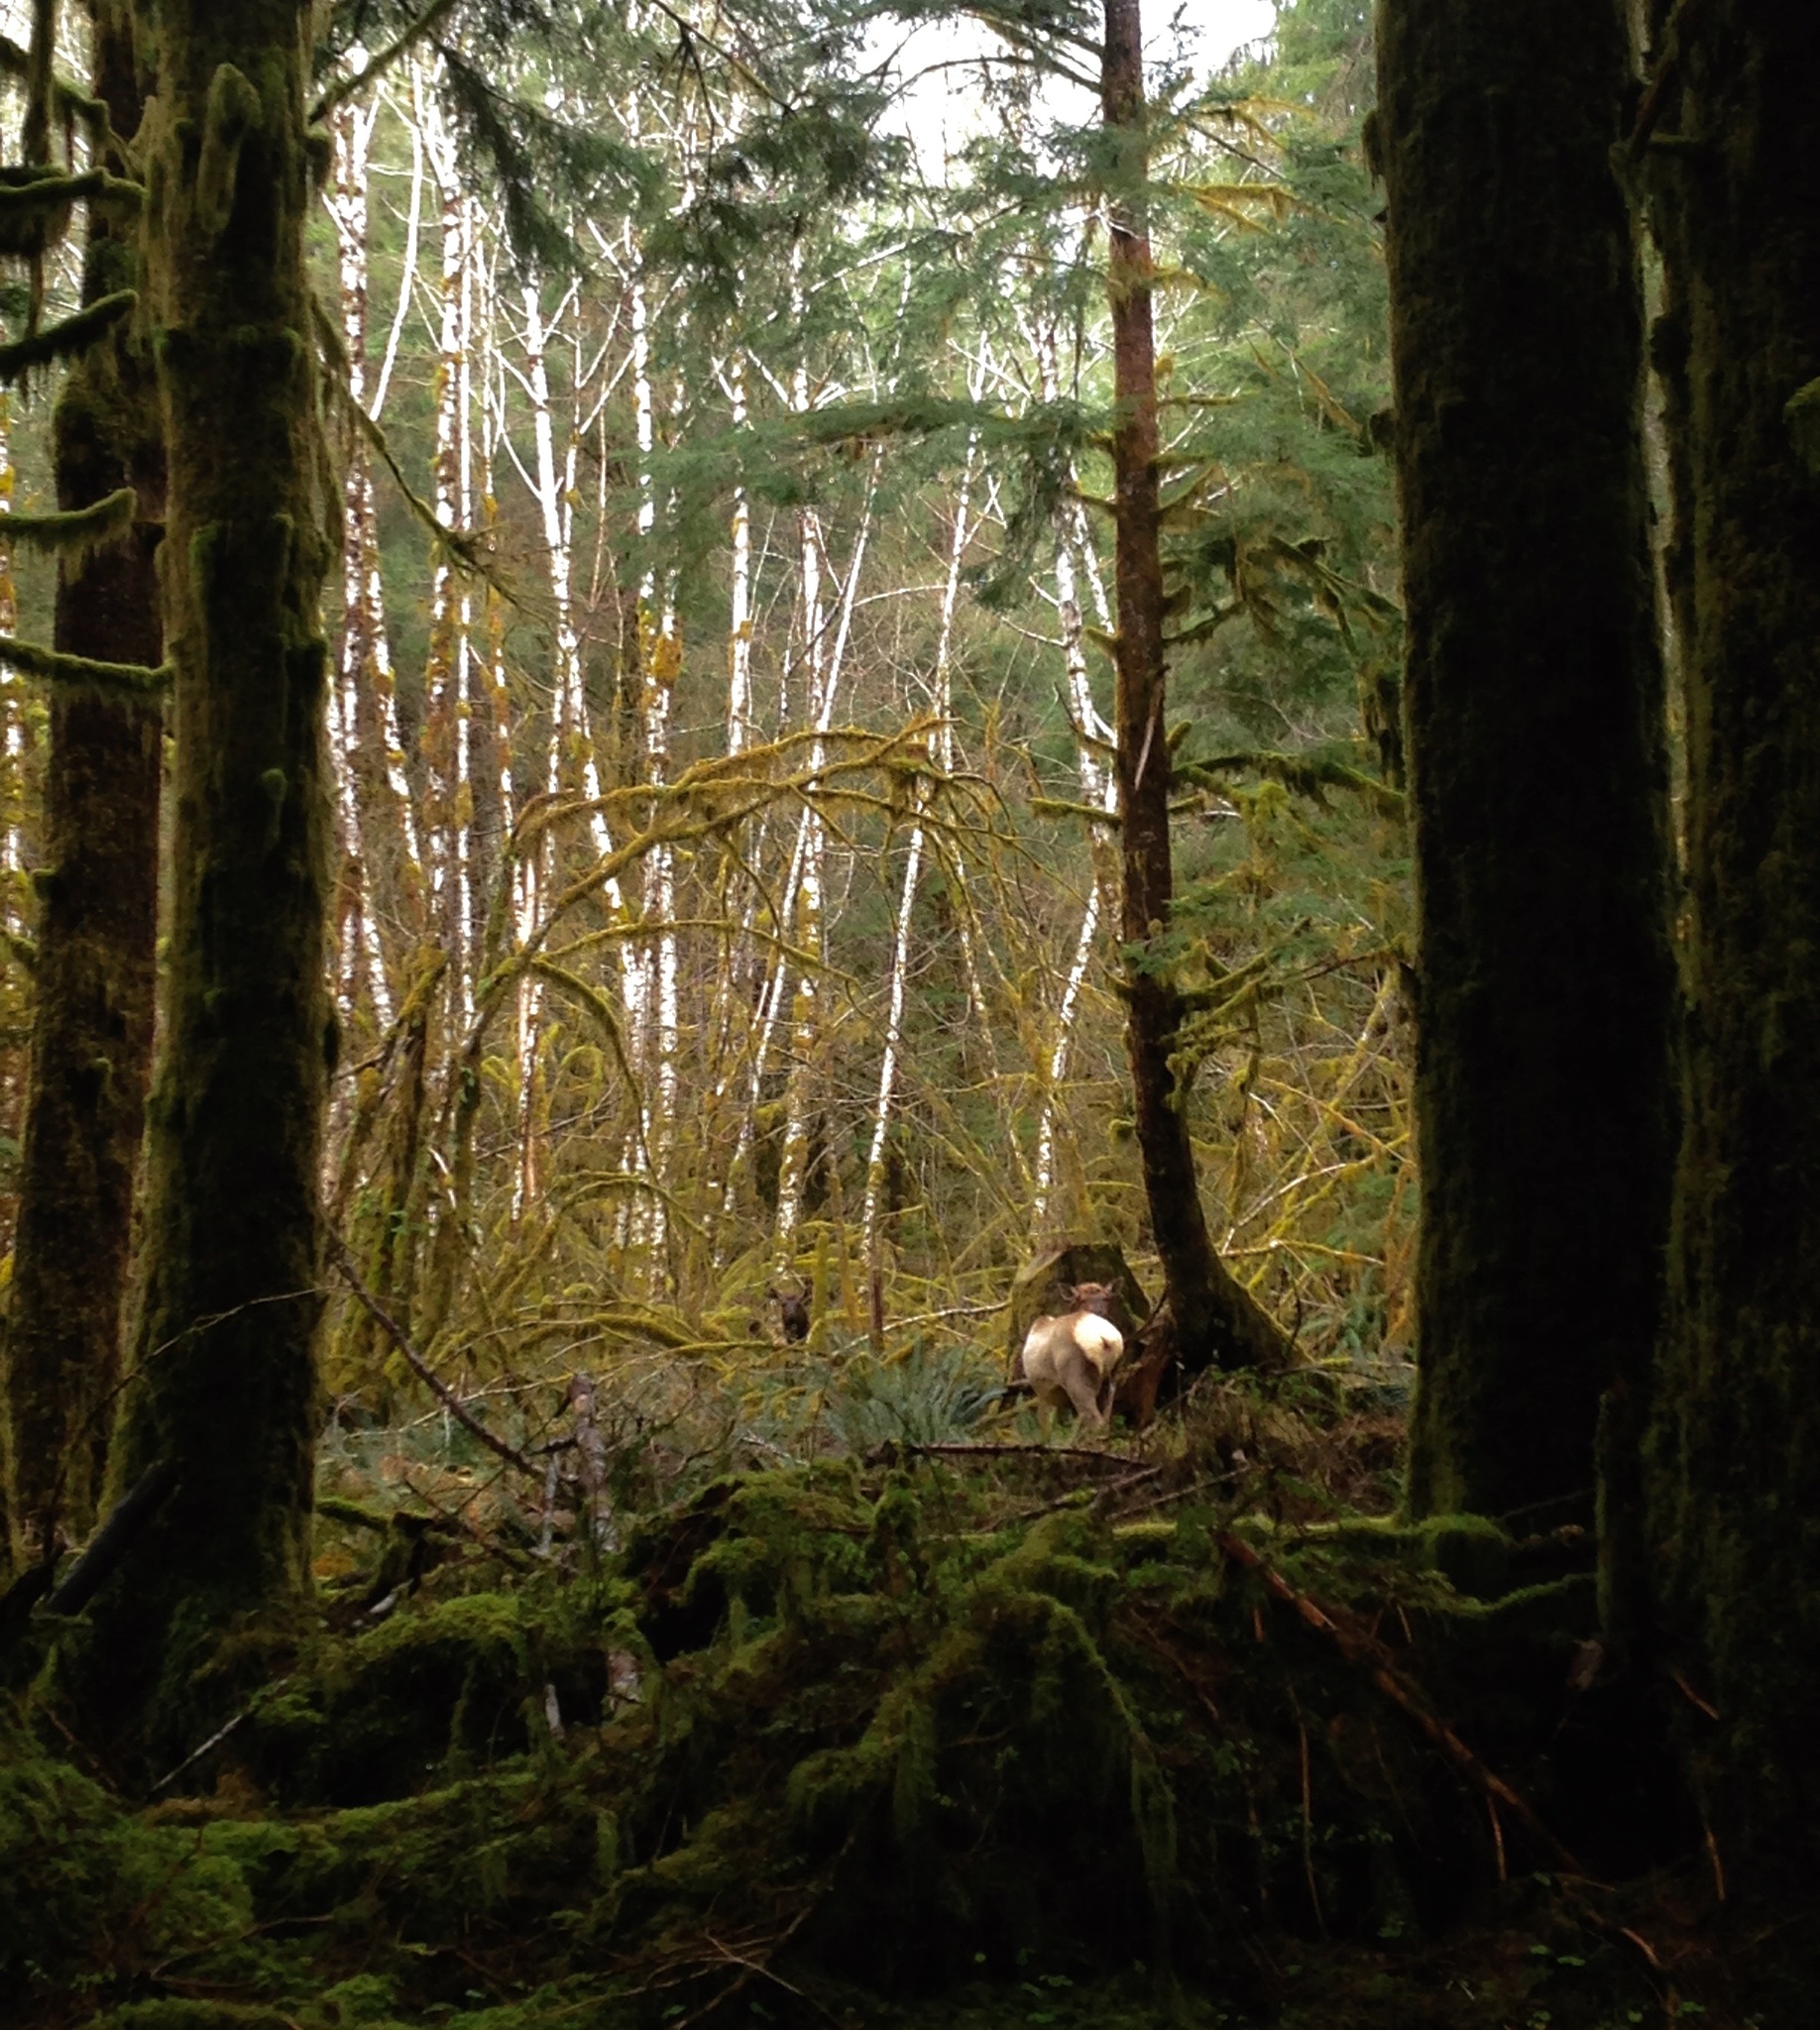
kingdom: Animalia
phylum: Chordata
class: Mammalia
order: Artiodactyla
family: Cervidae
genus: Cervus
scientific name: Cervus elaphus
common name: Red deer
